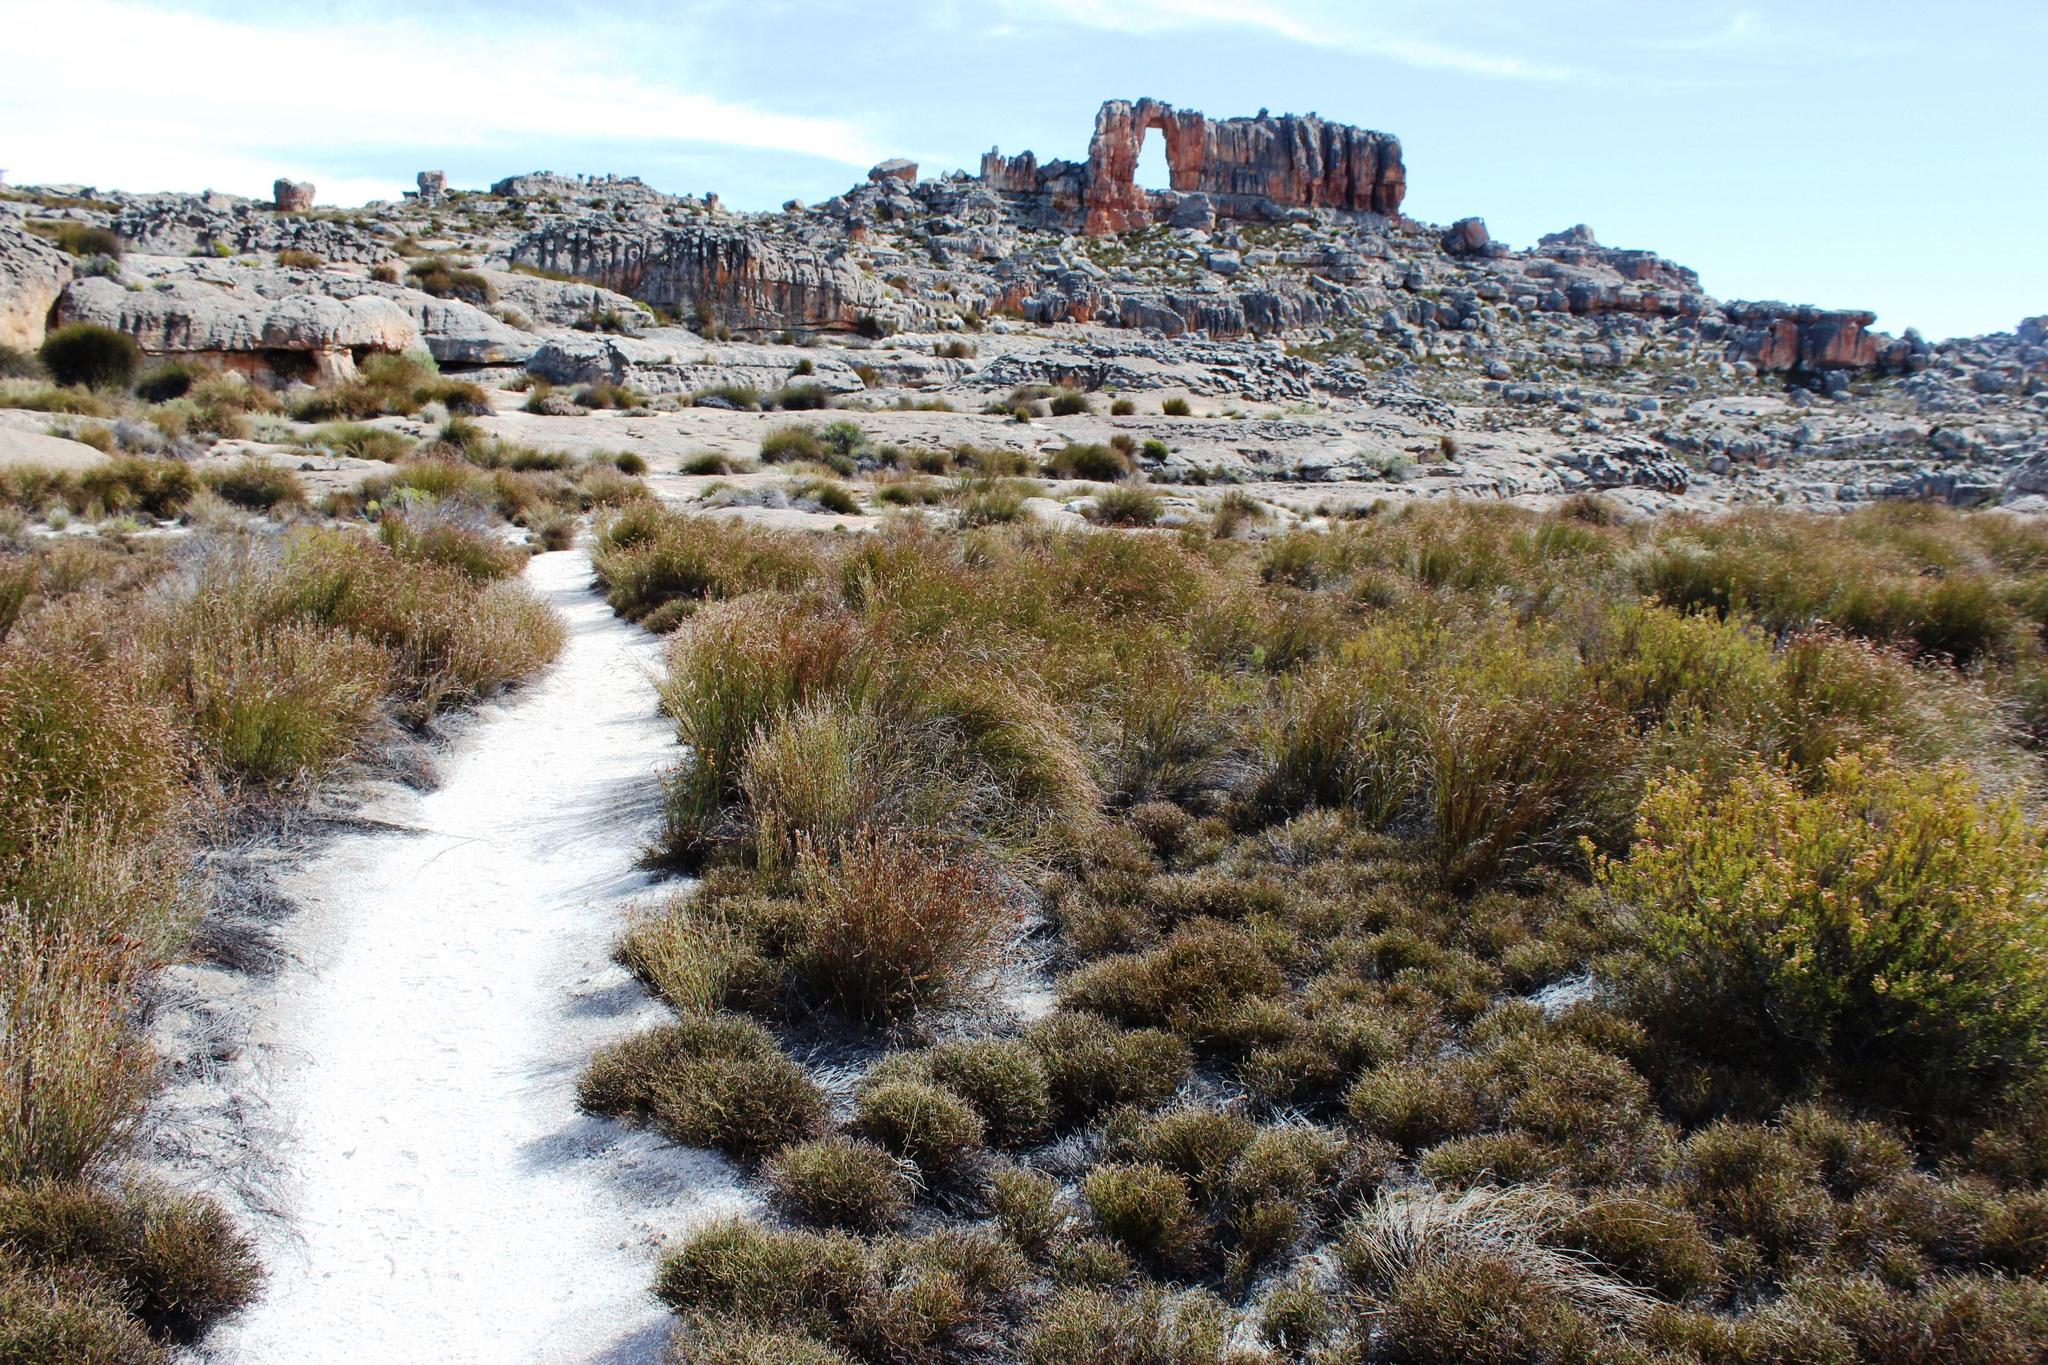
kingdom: Plantae
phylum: Tracheophyta
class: Liliopsida
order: Poales
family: Restionaceae
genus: Restio
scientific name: Restio brachiatus
